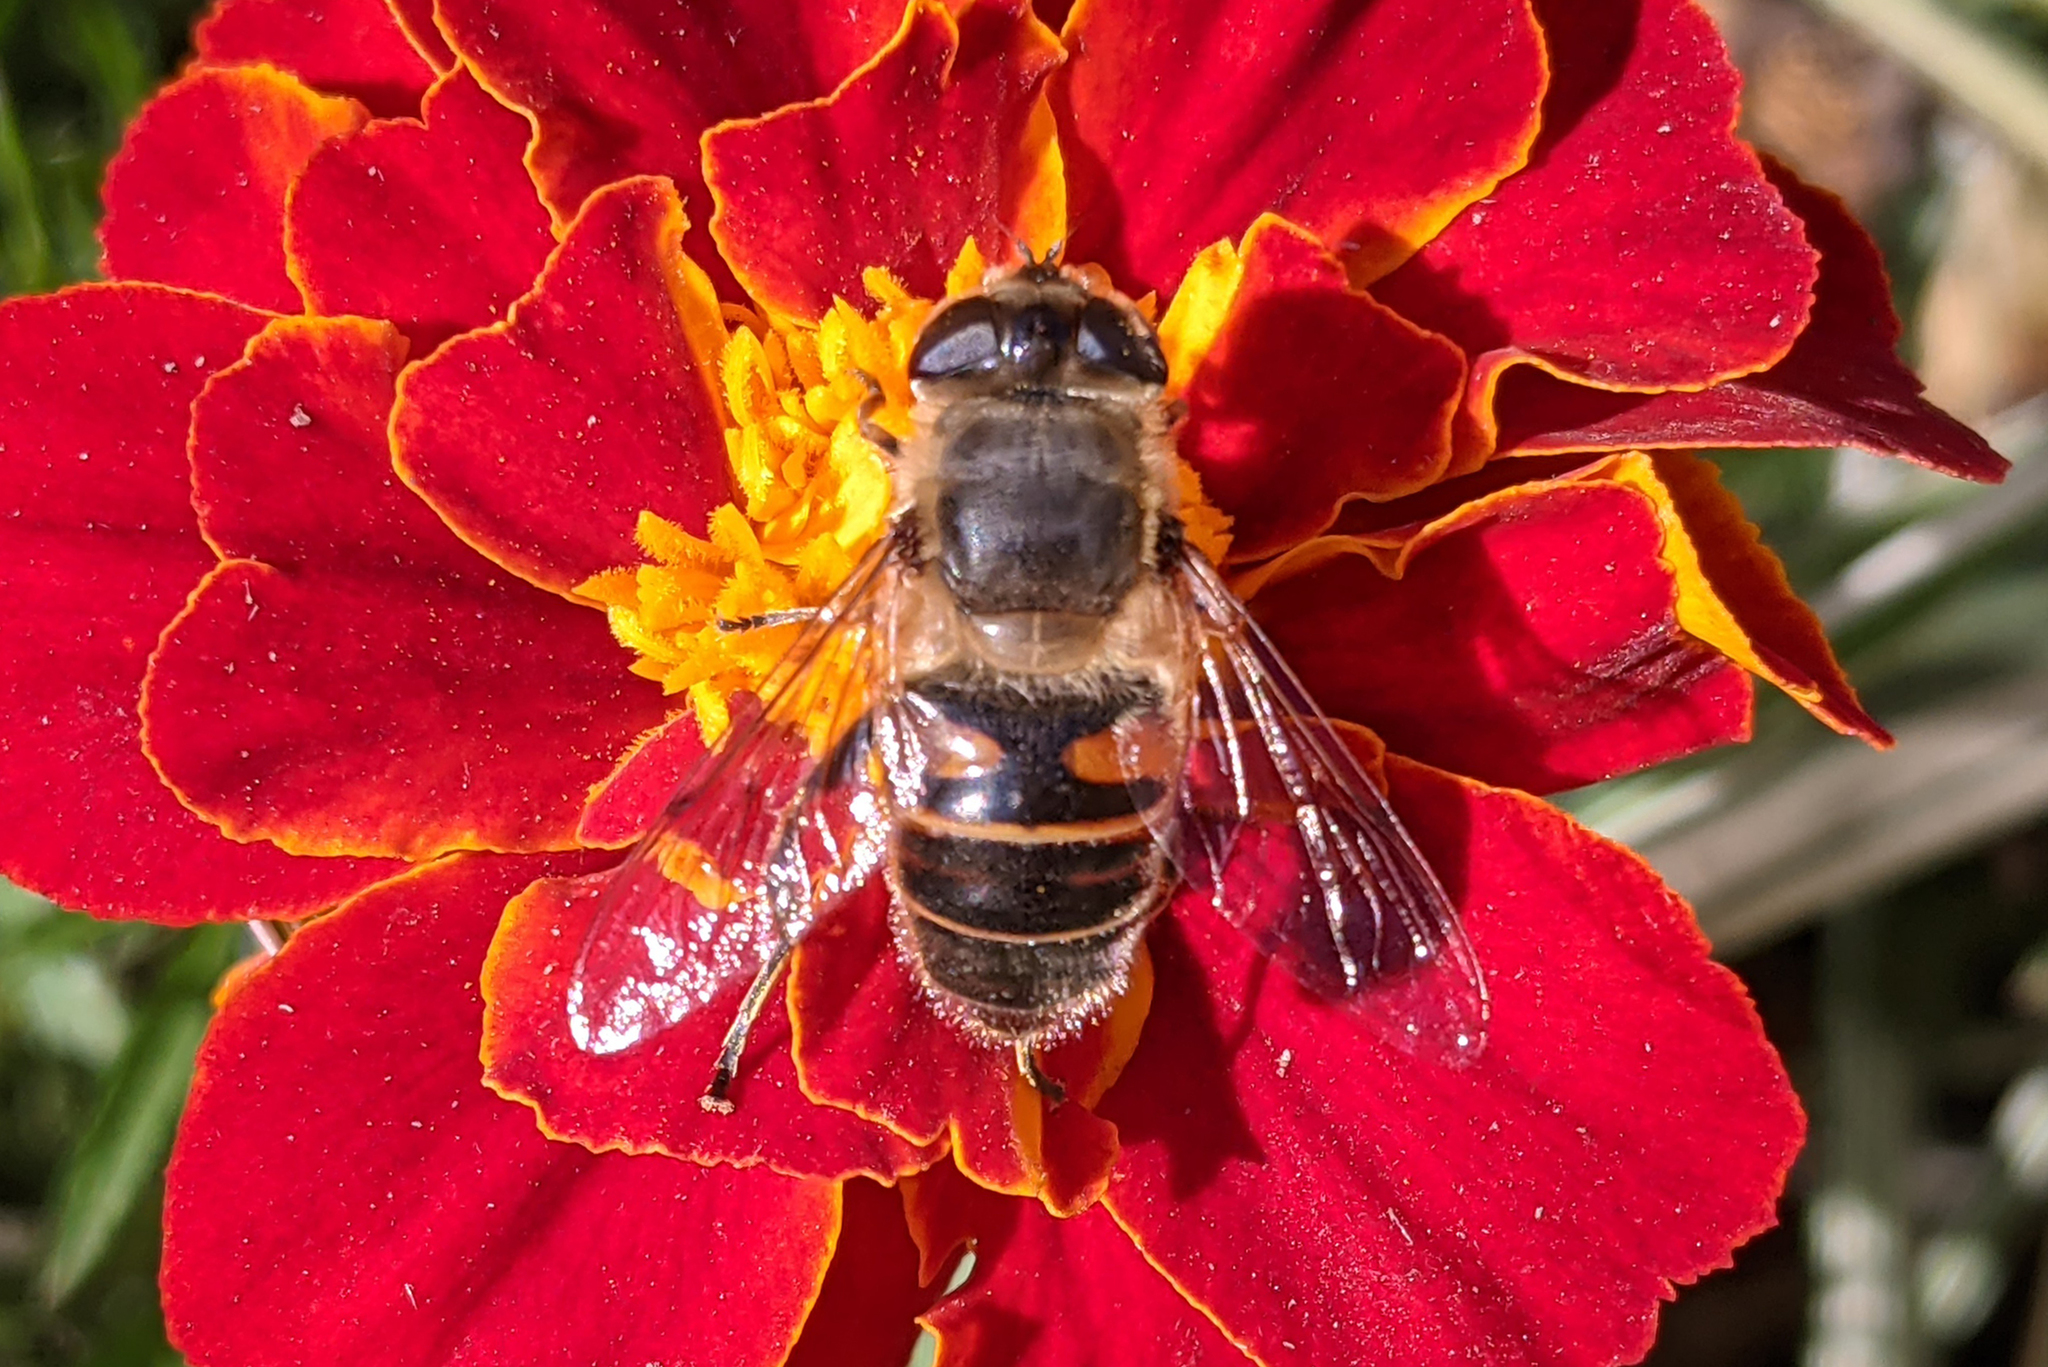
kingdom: Animalia
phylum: Arthropoda
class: Insecta
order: Diptera
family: Syrphidae
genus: Eristalis
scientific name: Eristalis tenax
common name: Drone fly
